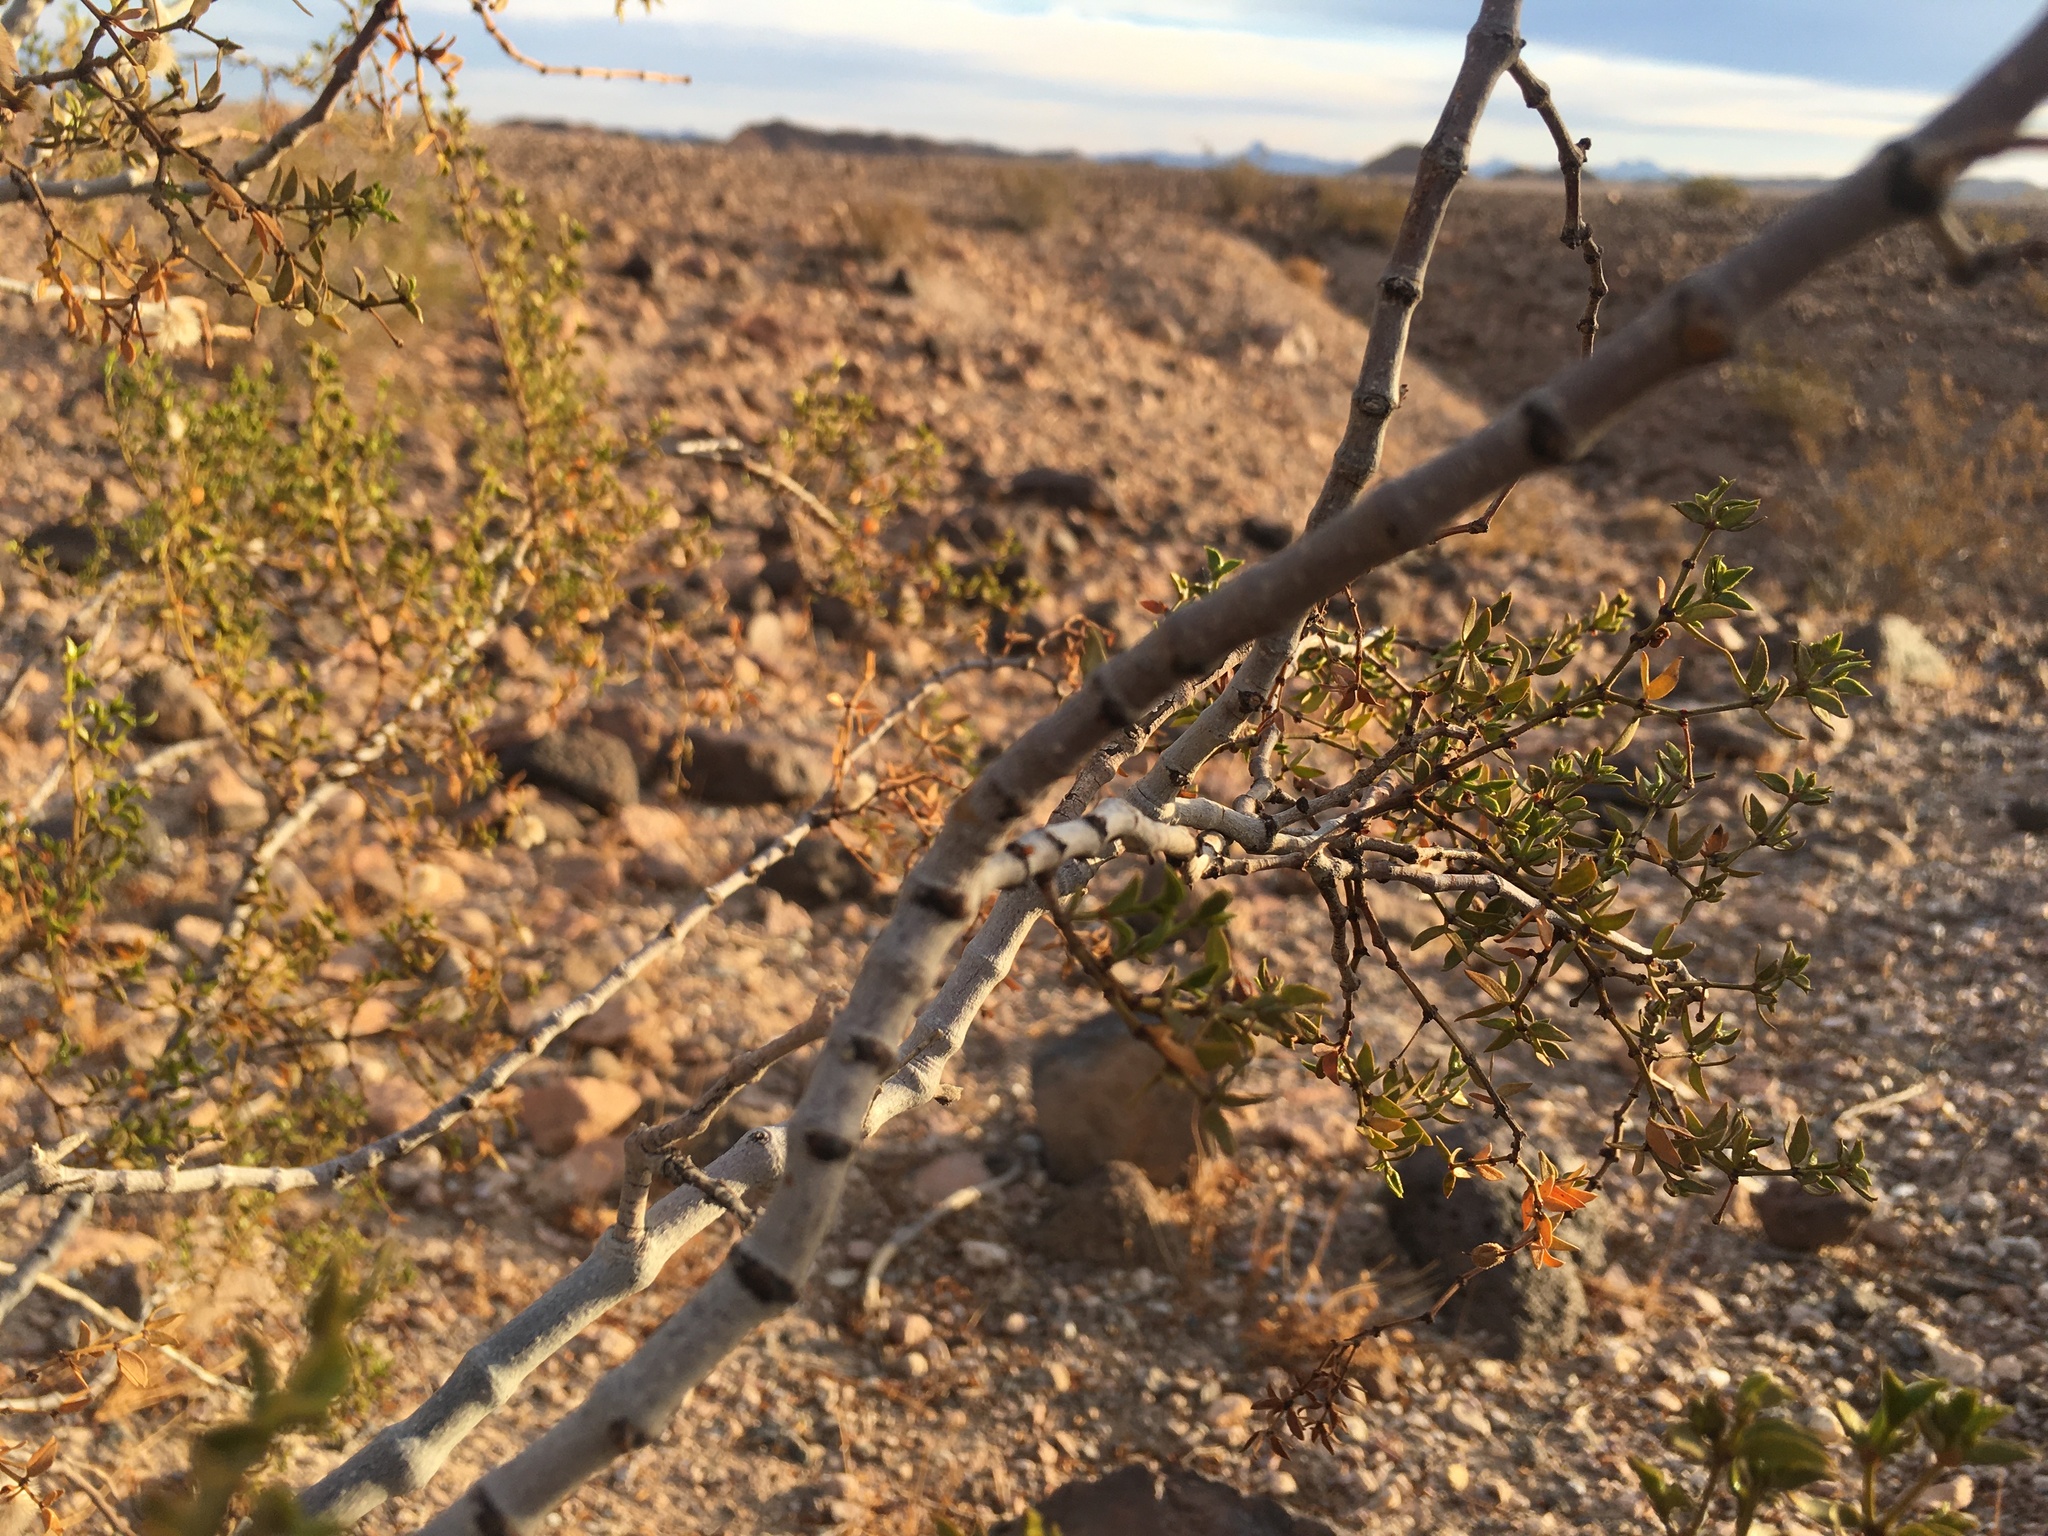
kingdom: Plantae
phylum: Tracheophyta
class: Magnoliopsida
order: Zygophyllales
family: Zygophyllaceae
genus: Larrea
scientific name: Larrea tridentata
